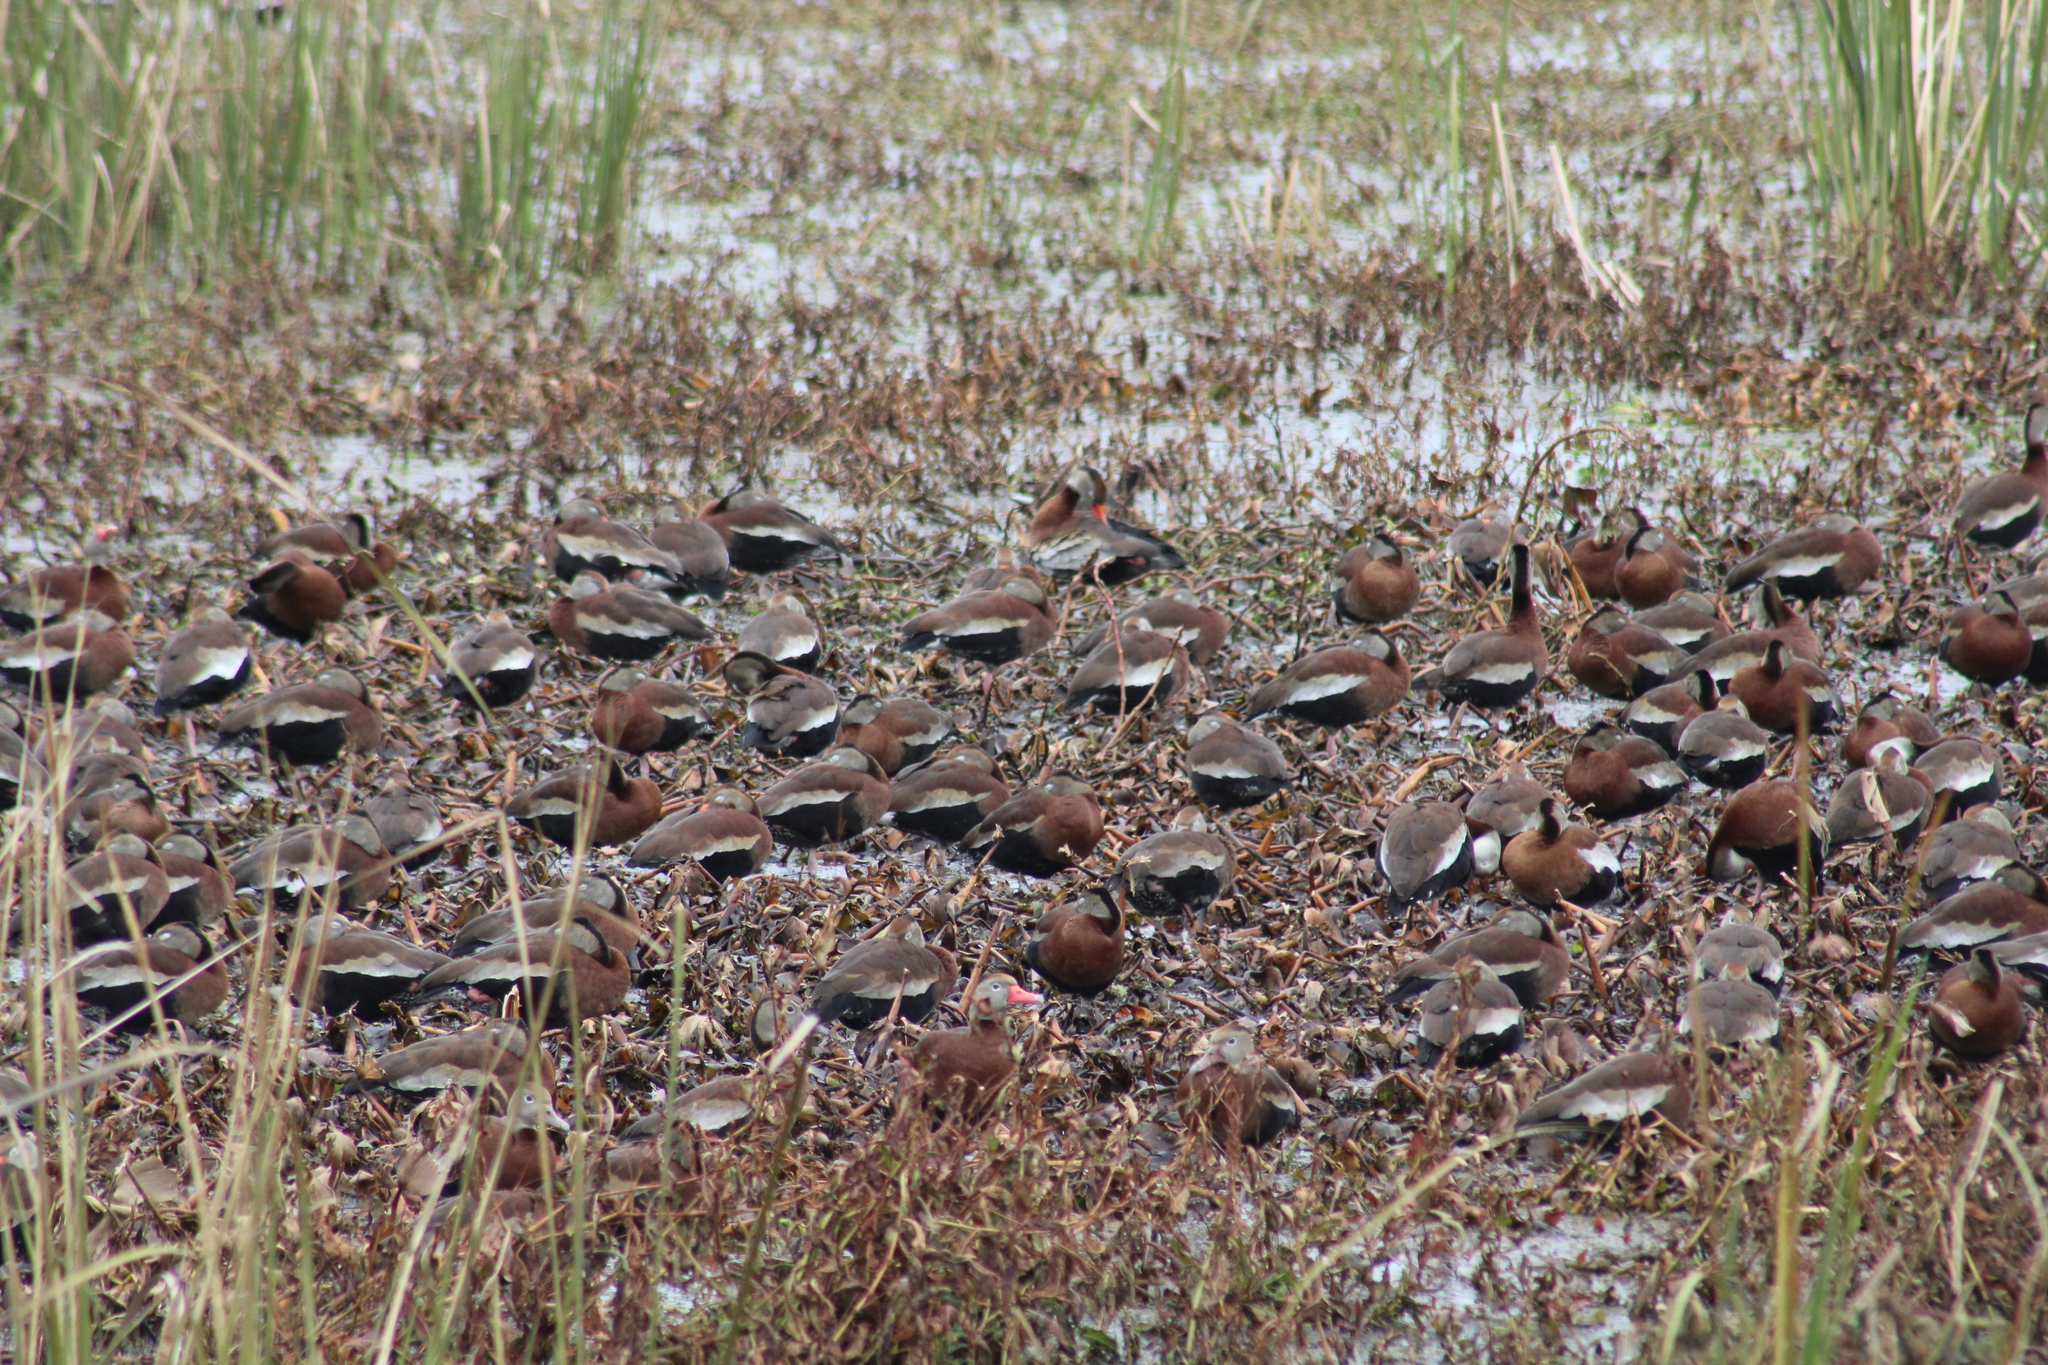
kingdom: Animalia
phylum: Chordata
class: Aves
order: Anseriformes
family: Anatidae
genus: Dendrocygna
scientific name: Dendrocygna autumnalis
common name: Black-bellied whistling duck
